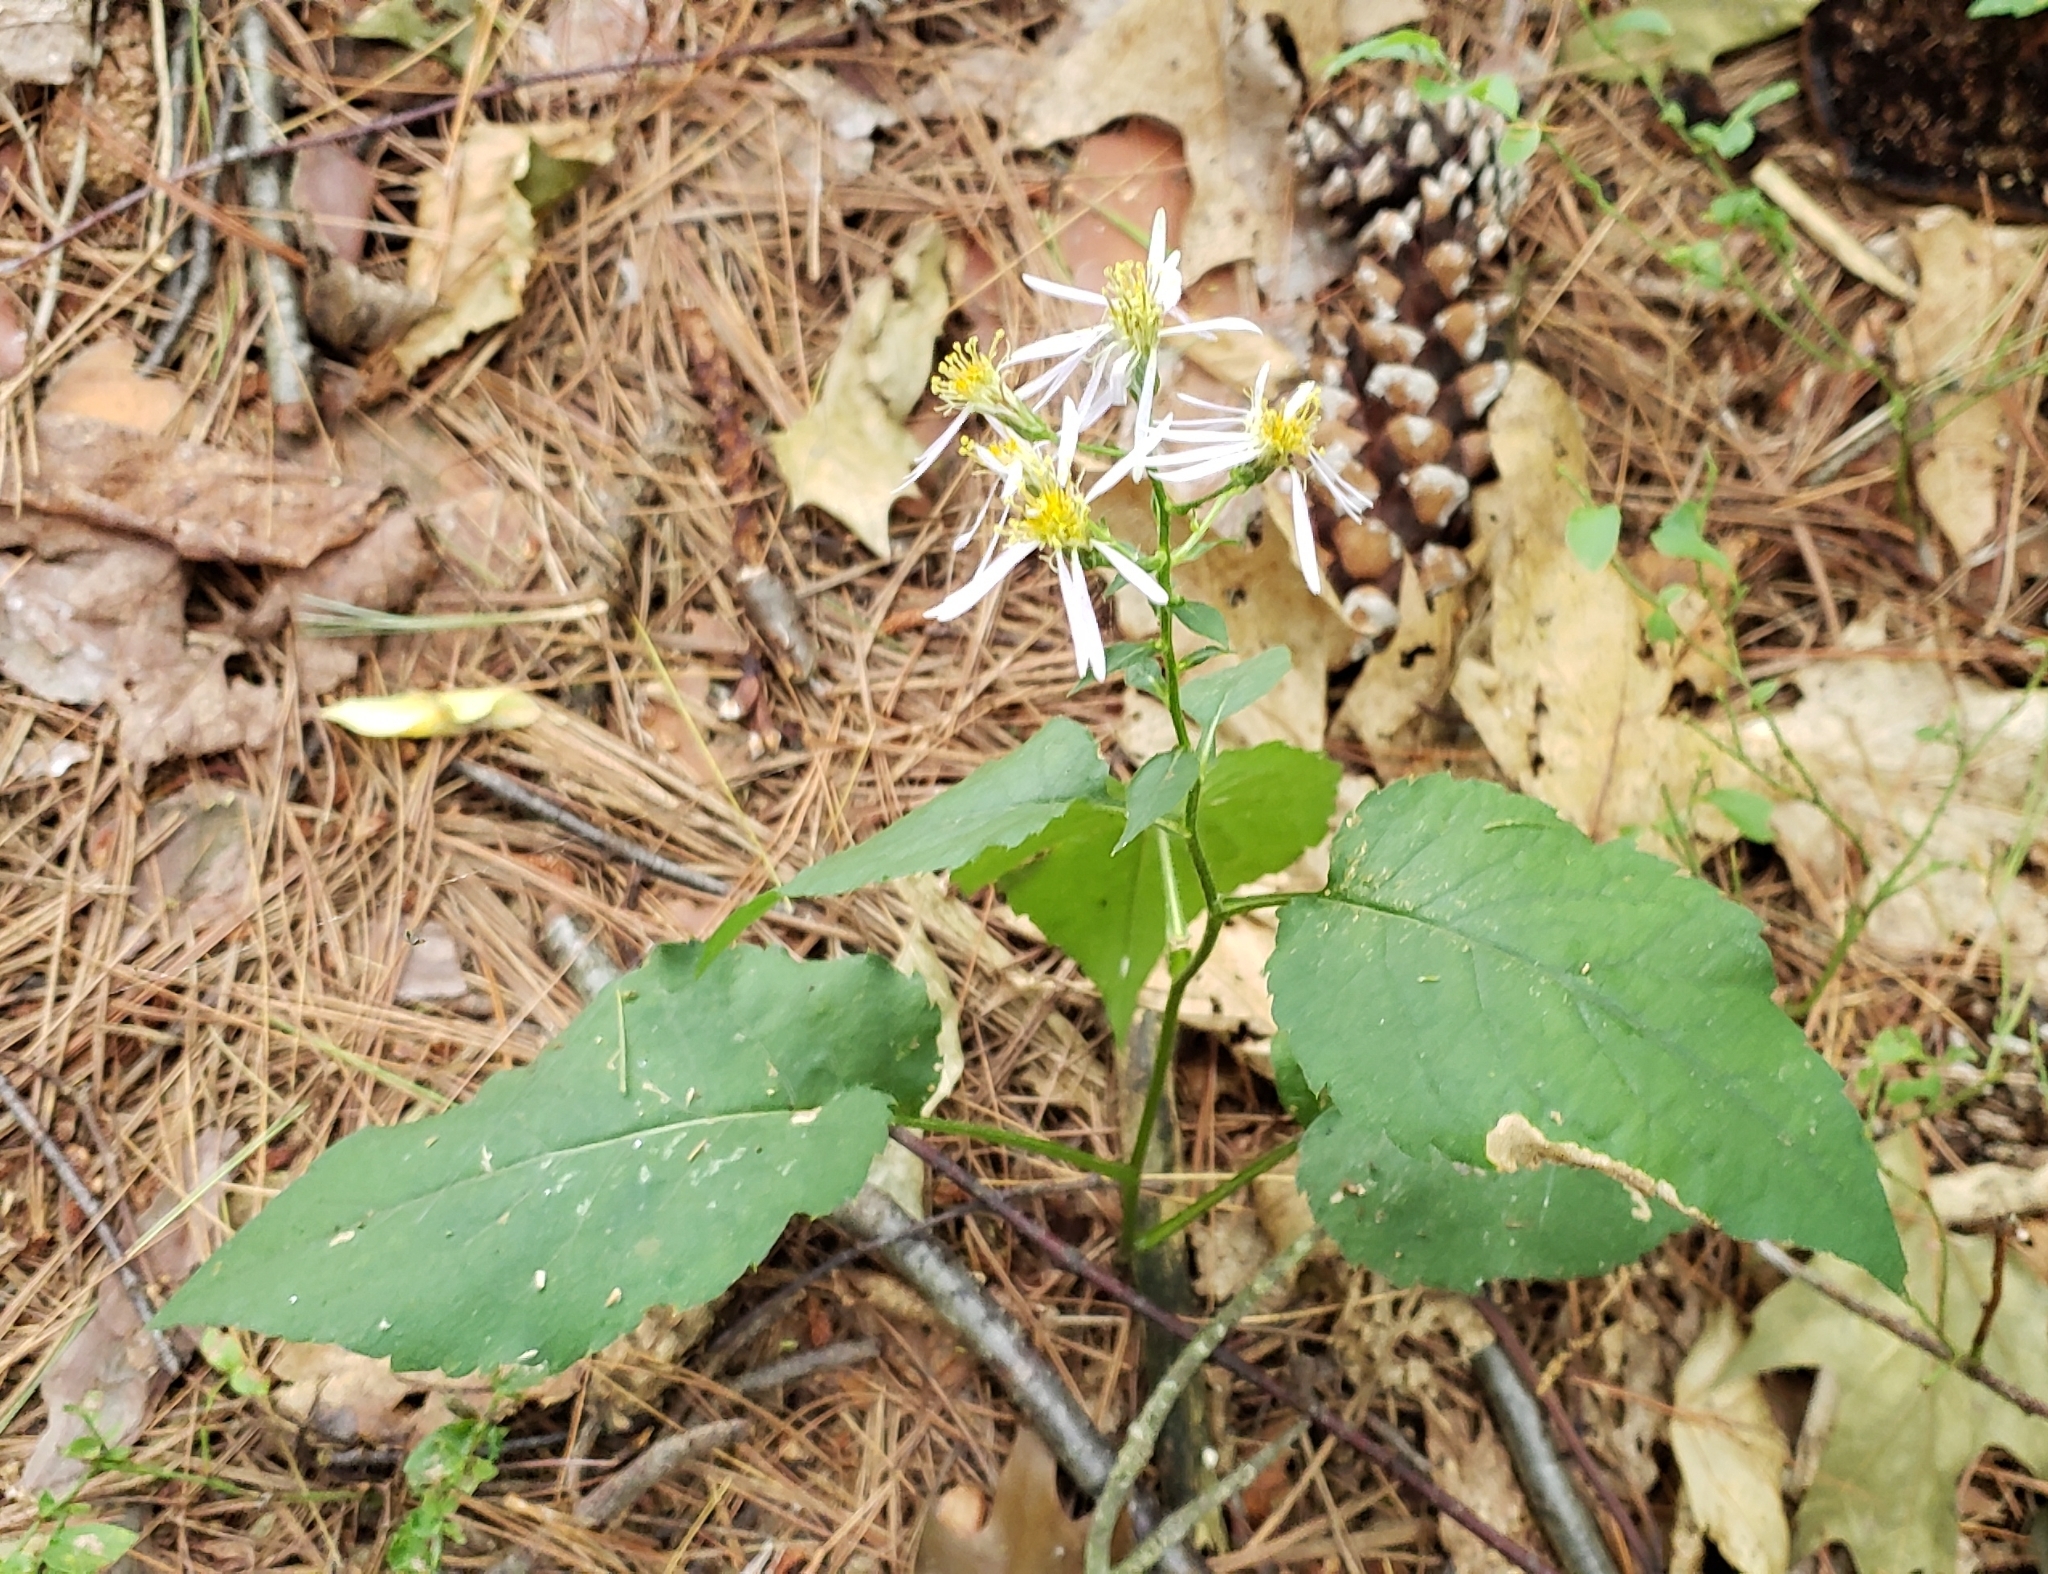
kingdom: Plantae
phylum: Tracheophyta
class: Magnoliopsida
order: Asterales
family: Asteraceae
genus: Eurybia
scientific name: Eurybia macrophylla
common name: Big-leaved aster
